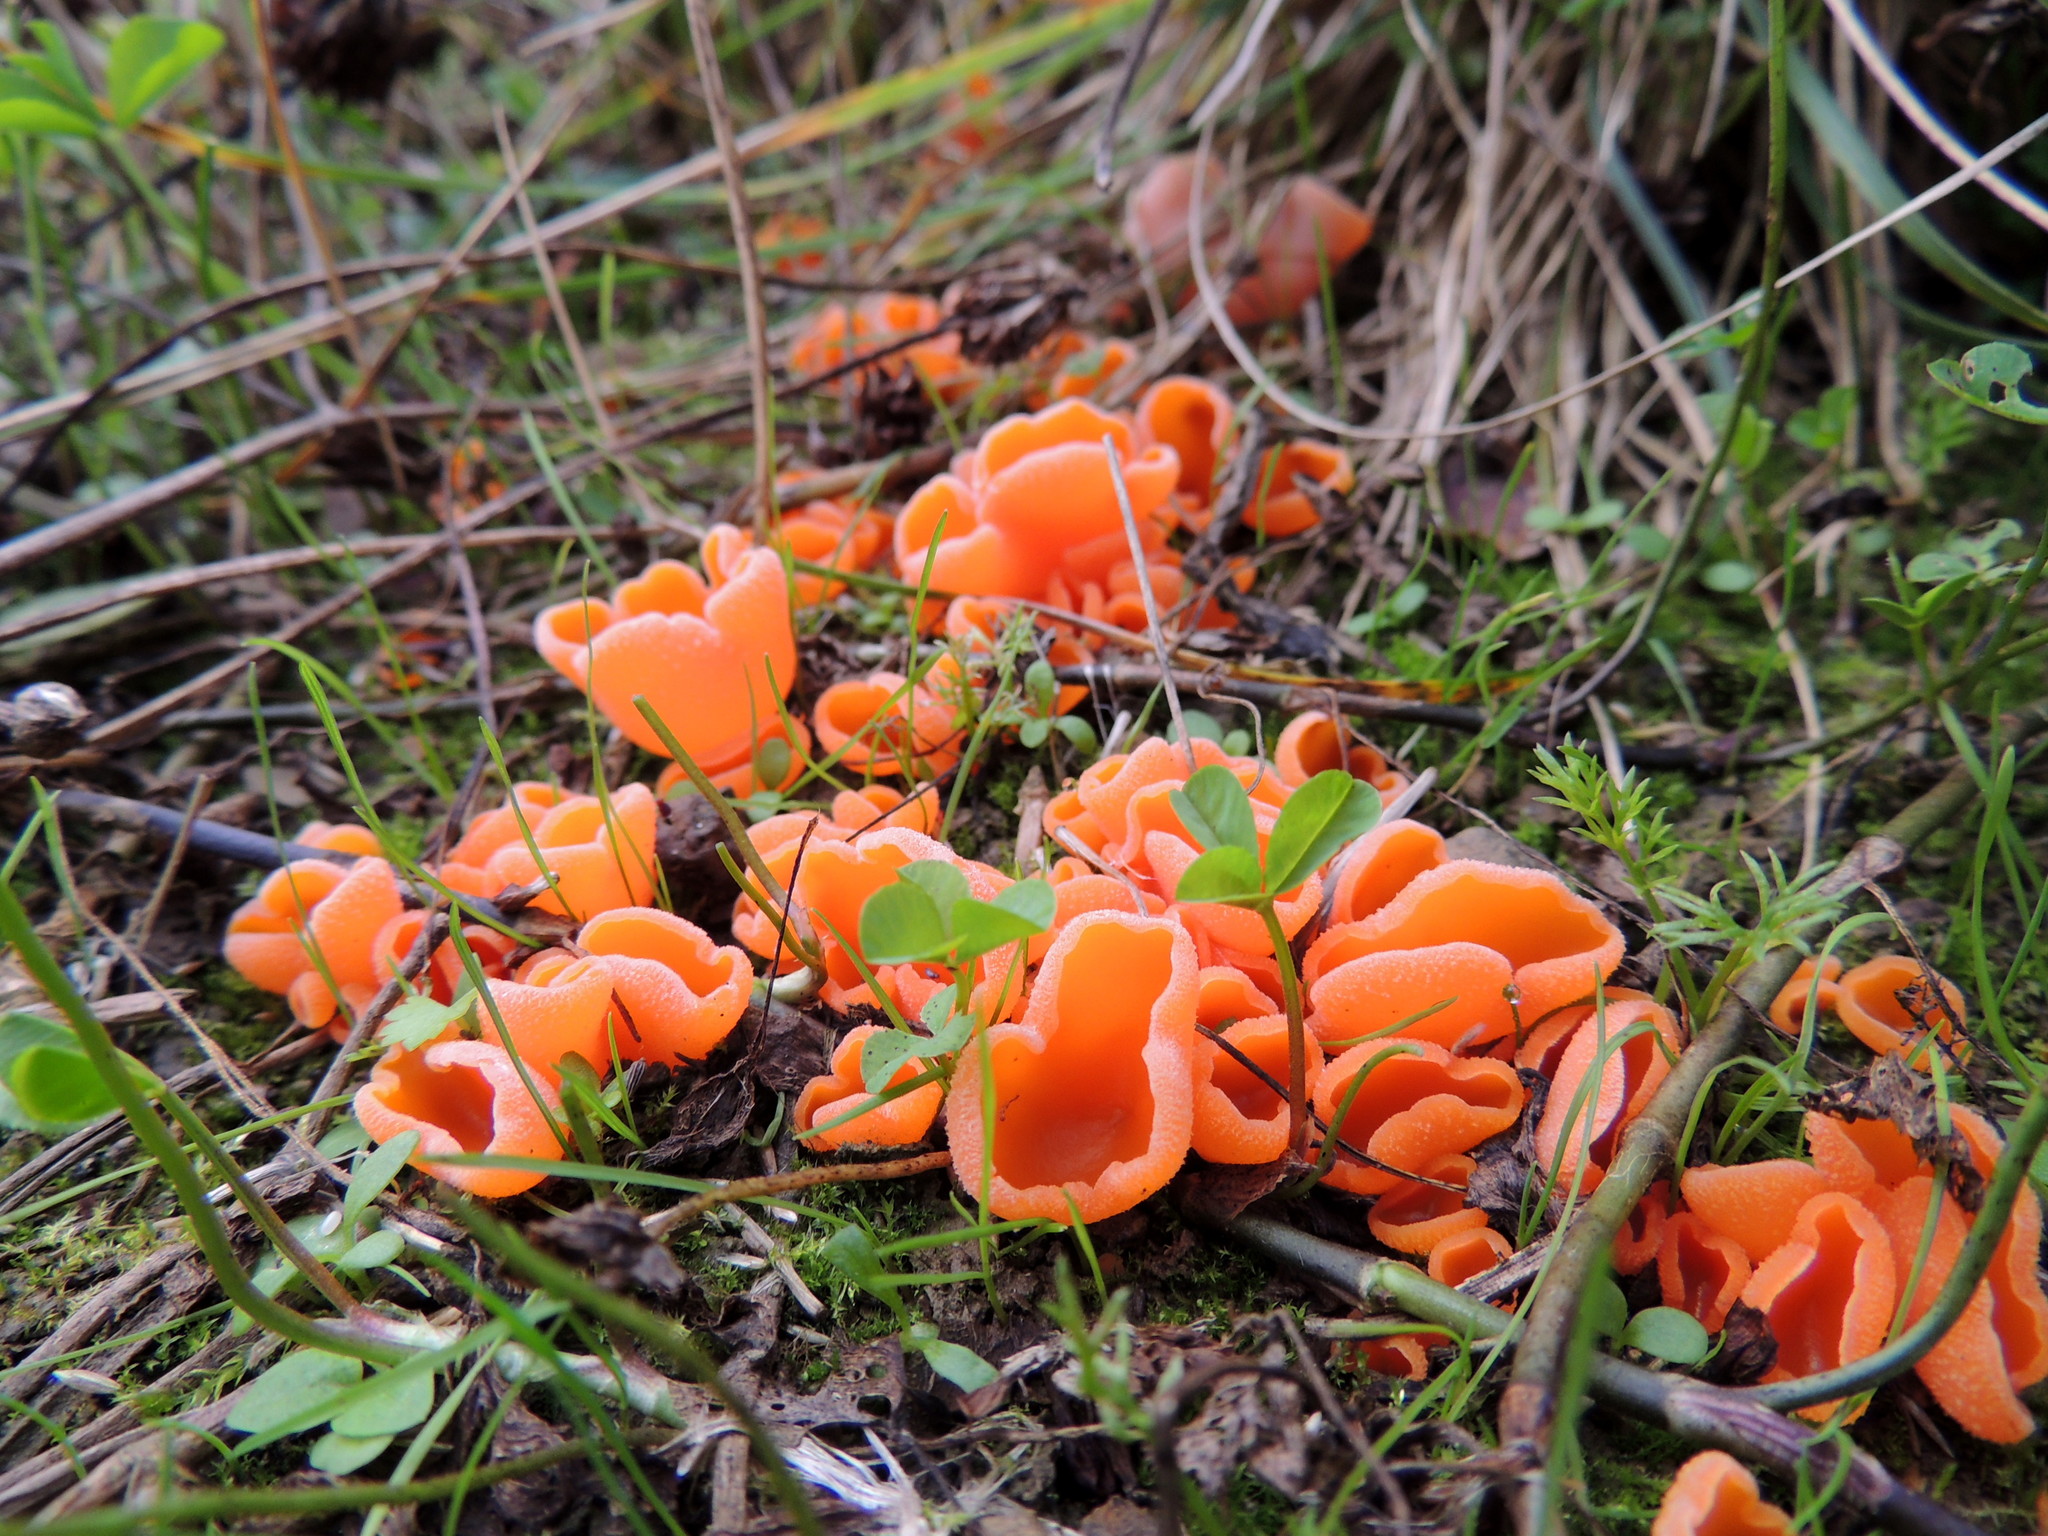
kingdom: Fungi
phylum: Ascomycota
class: Pezizomycetes
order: Pezizales
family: Pyronemataceae
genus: Aleuria
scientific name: Aleuria aurantia
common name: Orange peel fungus
